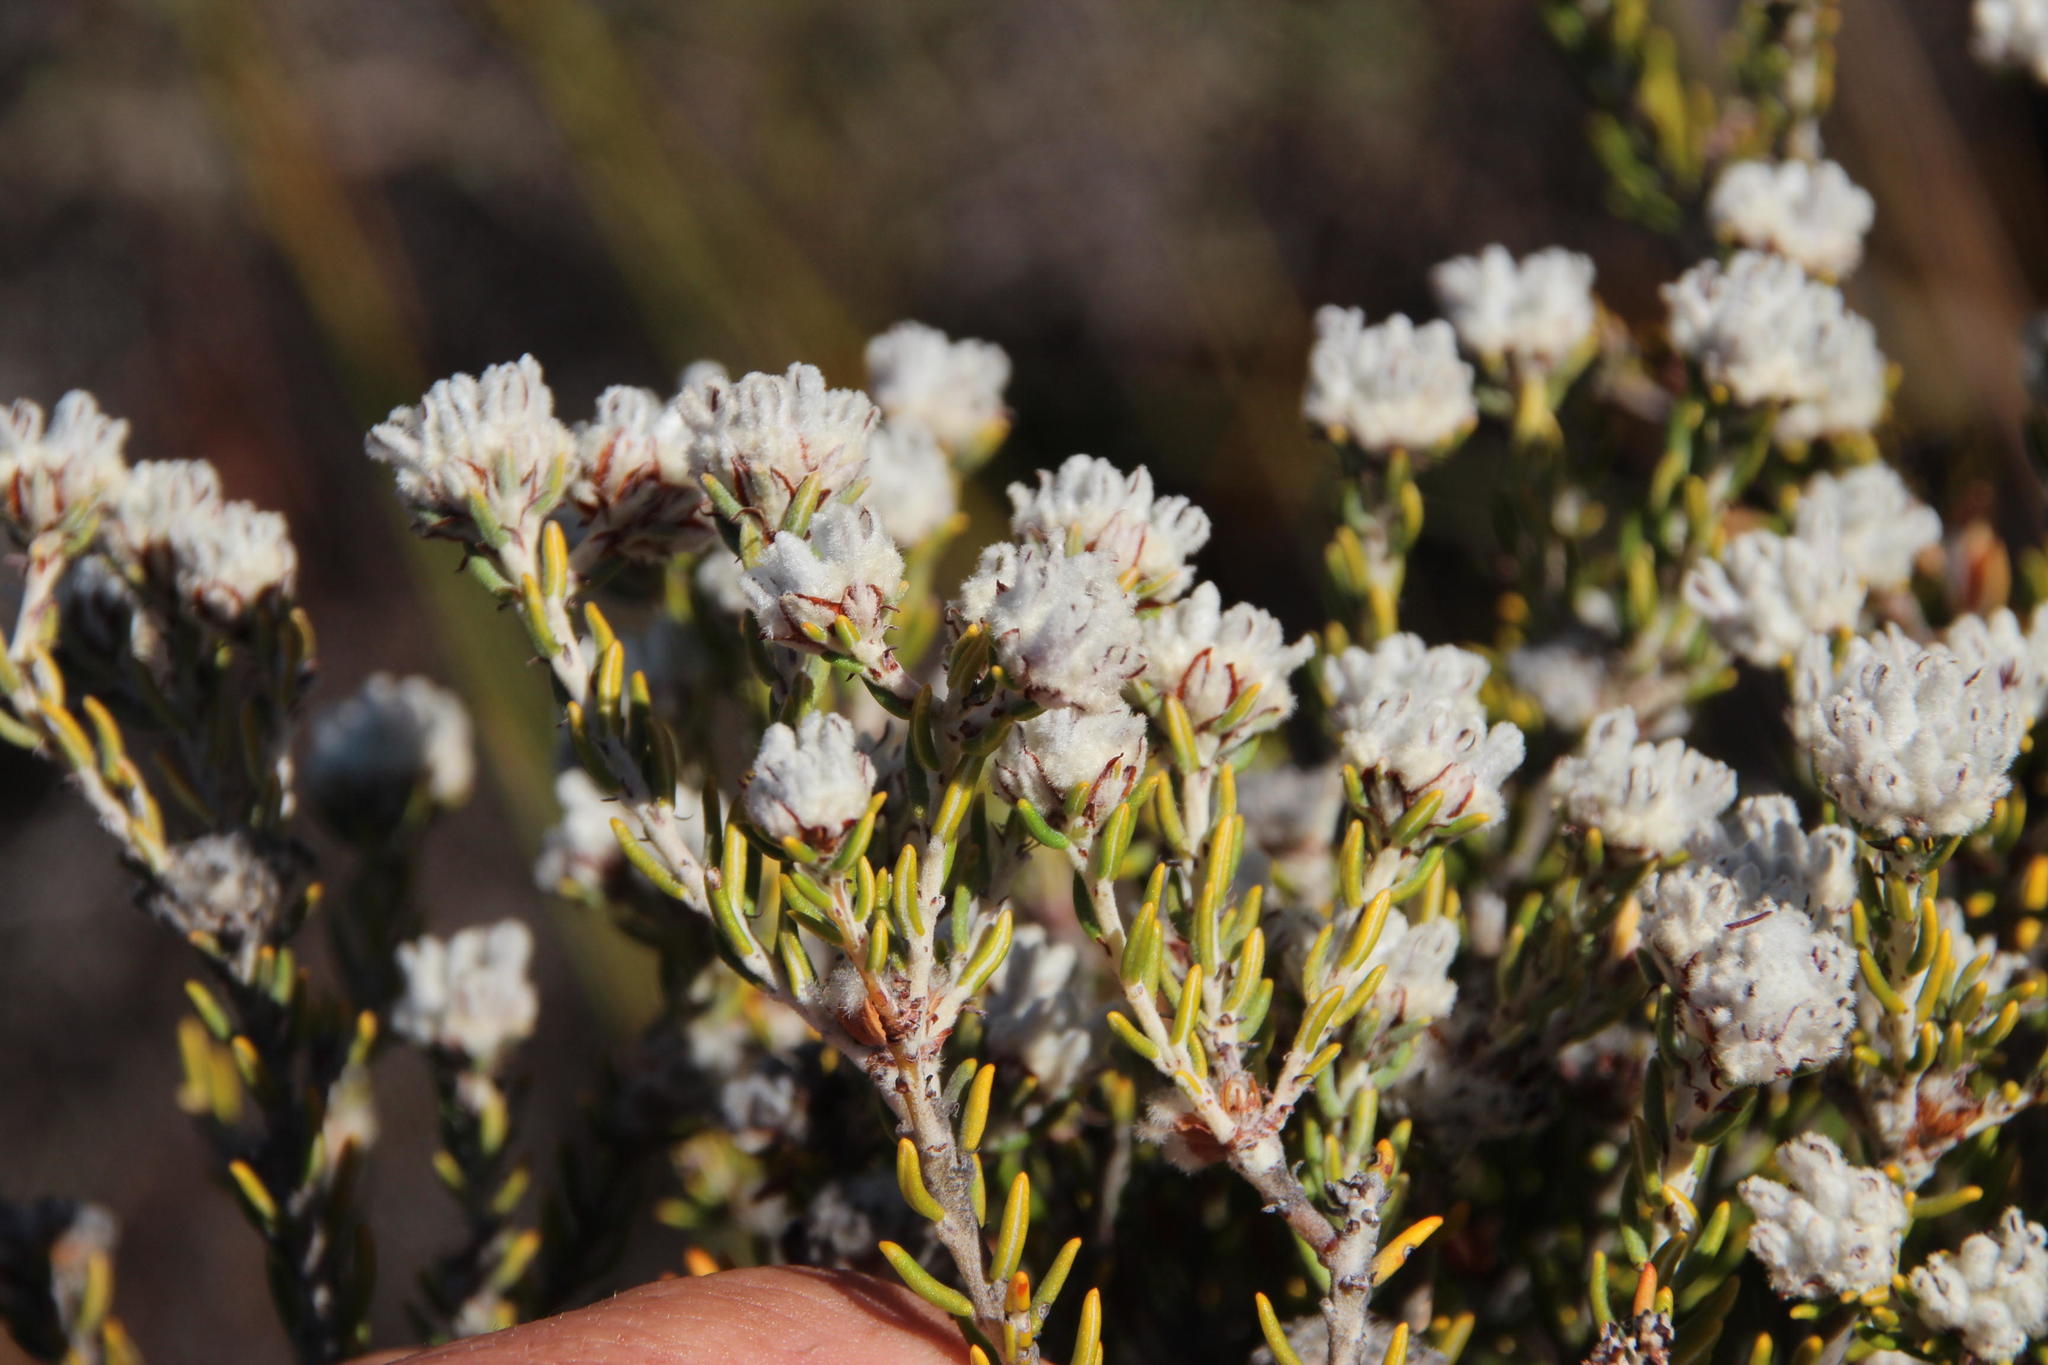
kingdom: Plantae
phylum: Tracheophyta
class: Magnoliopsida
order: Rosales
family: Rhamnaceae
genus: Trichocephalus
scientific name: Trichocephalus stipularis
